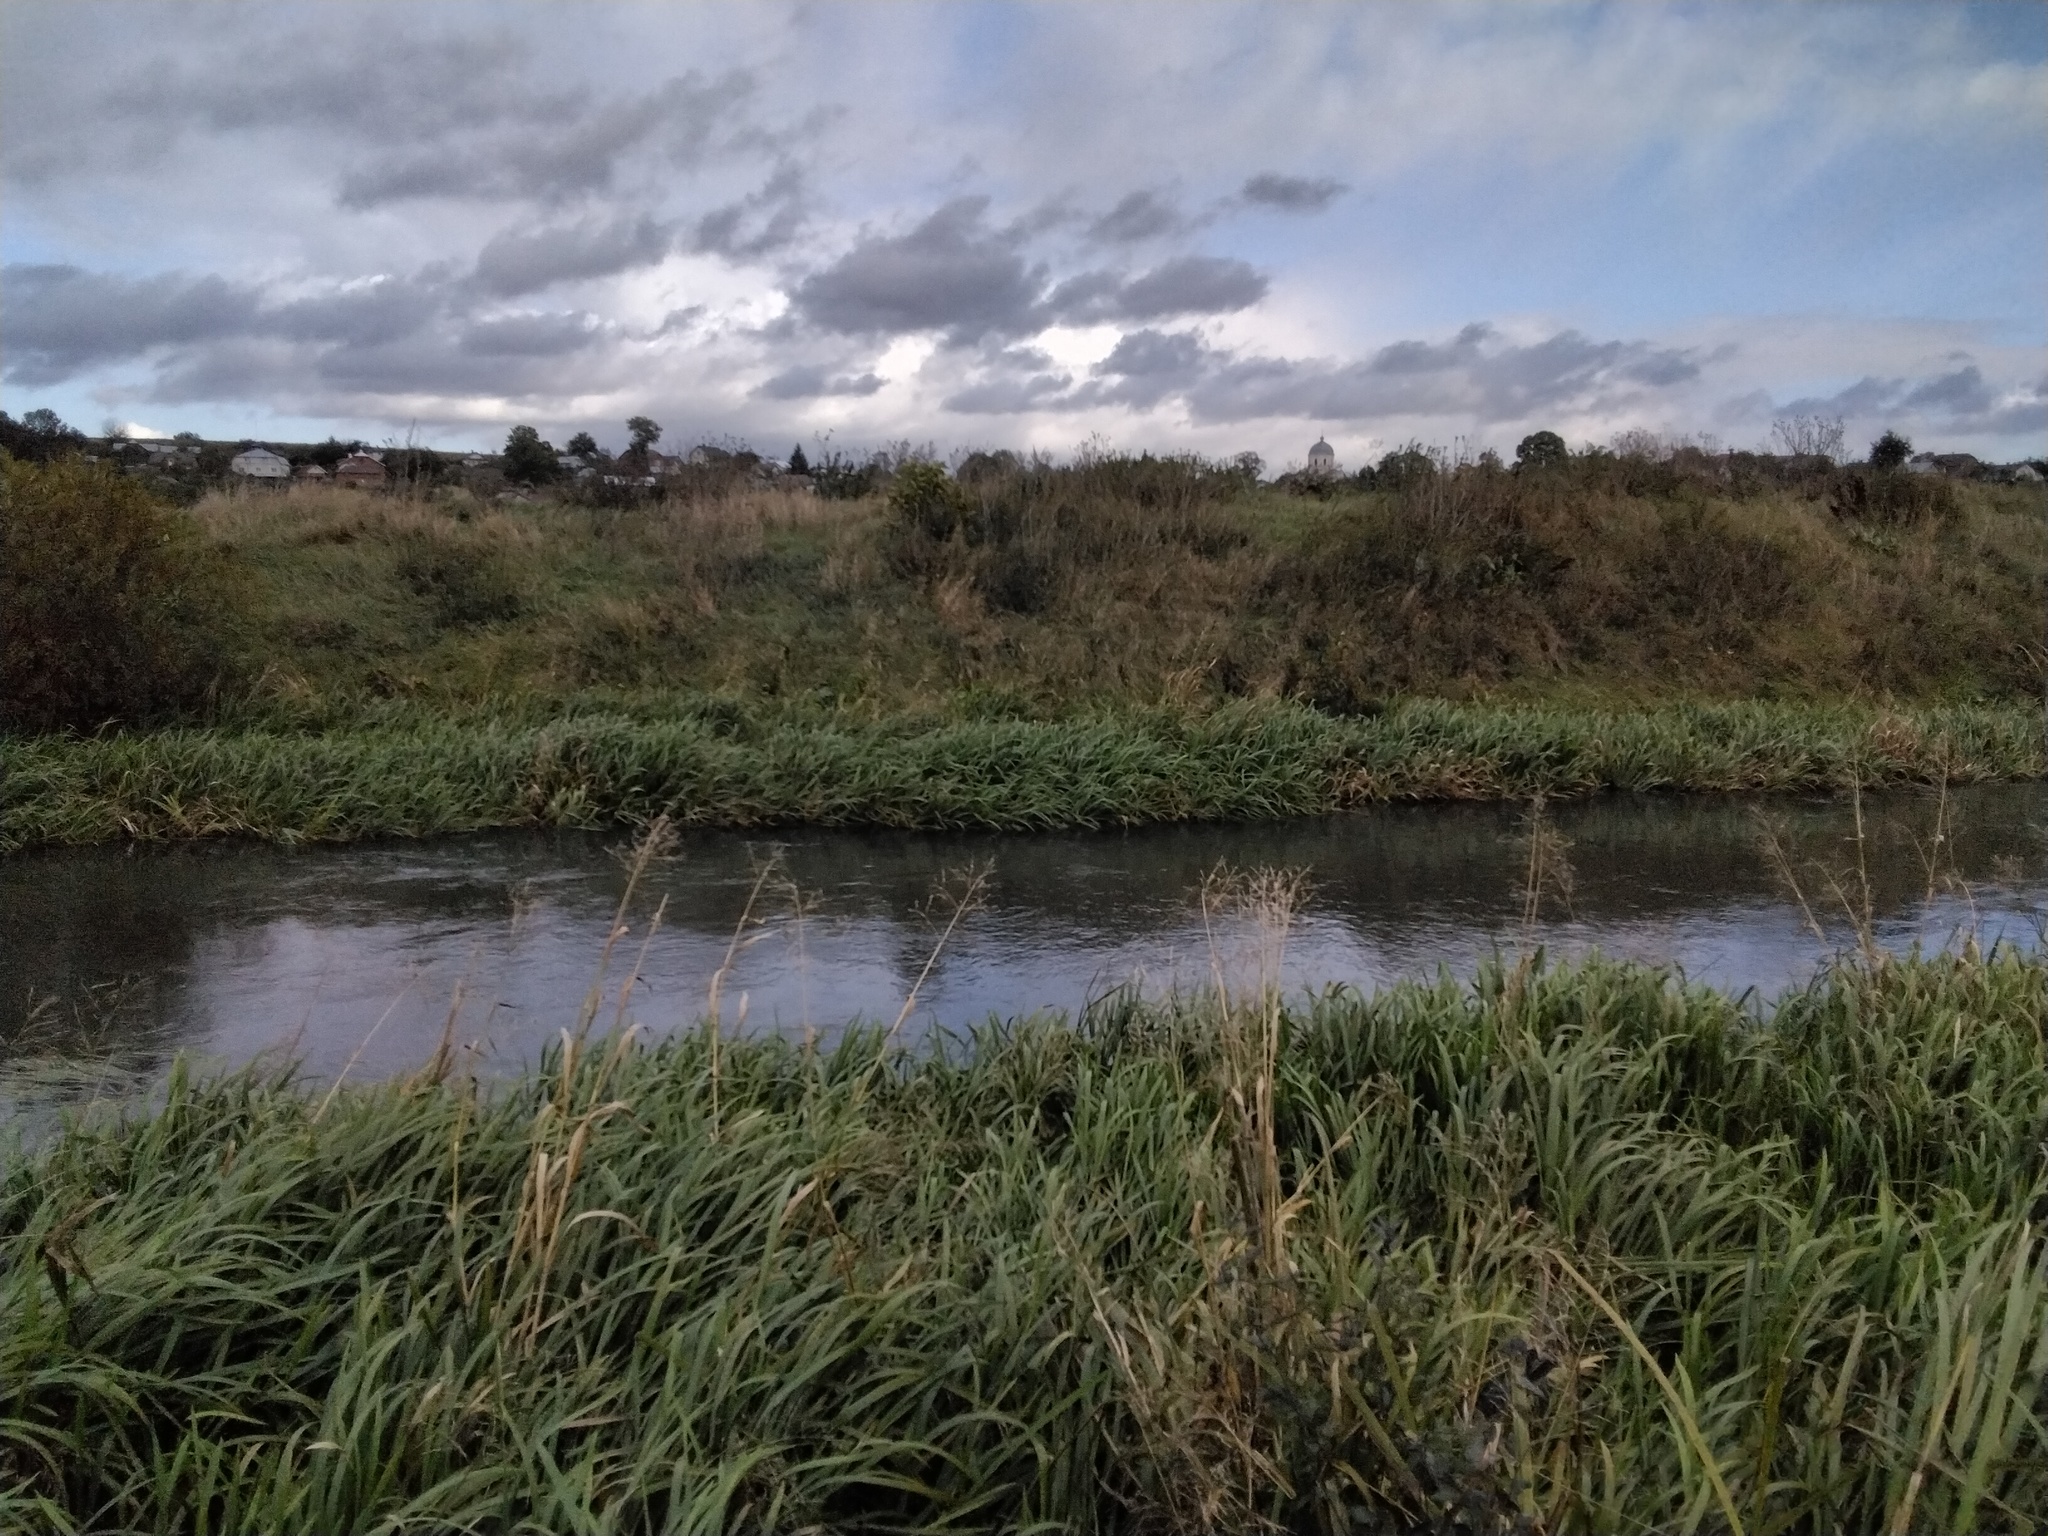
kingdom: Plantae
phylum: Tracheophyta
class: Liliopsida
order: Poales
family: Poaceae
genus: Glyceria
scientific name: Glyceria maxima
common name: Reed mannagrass
